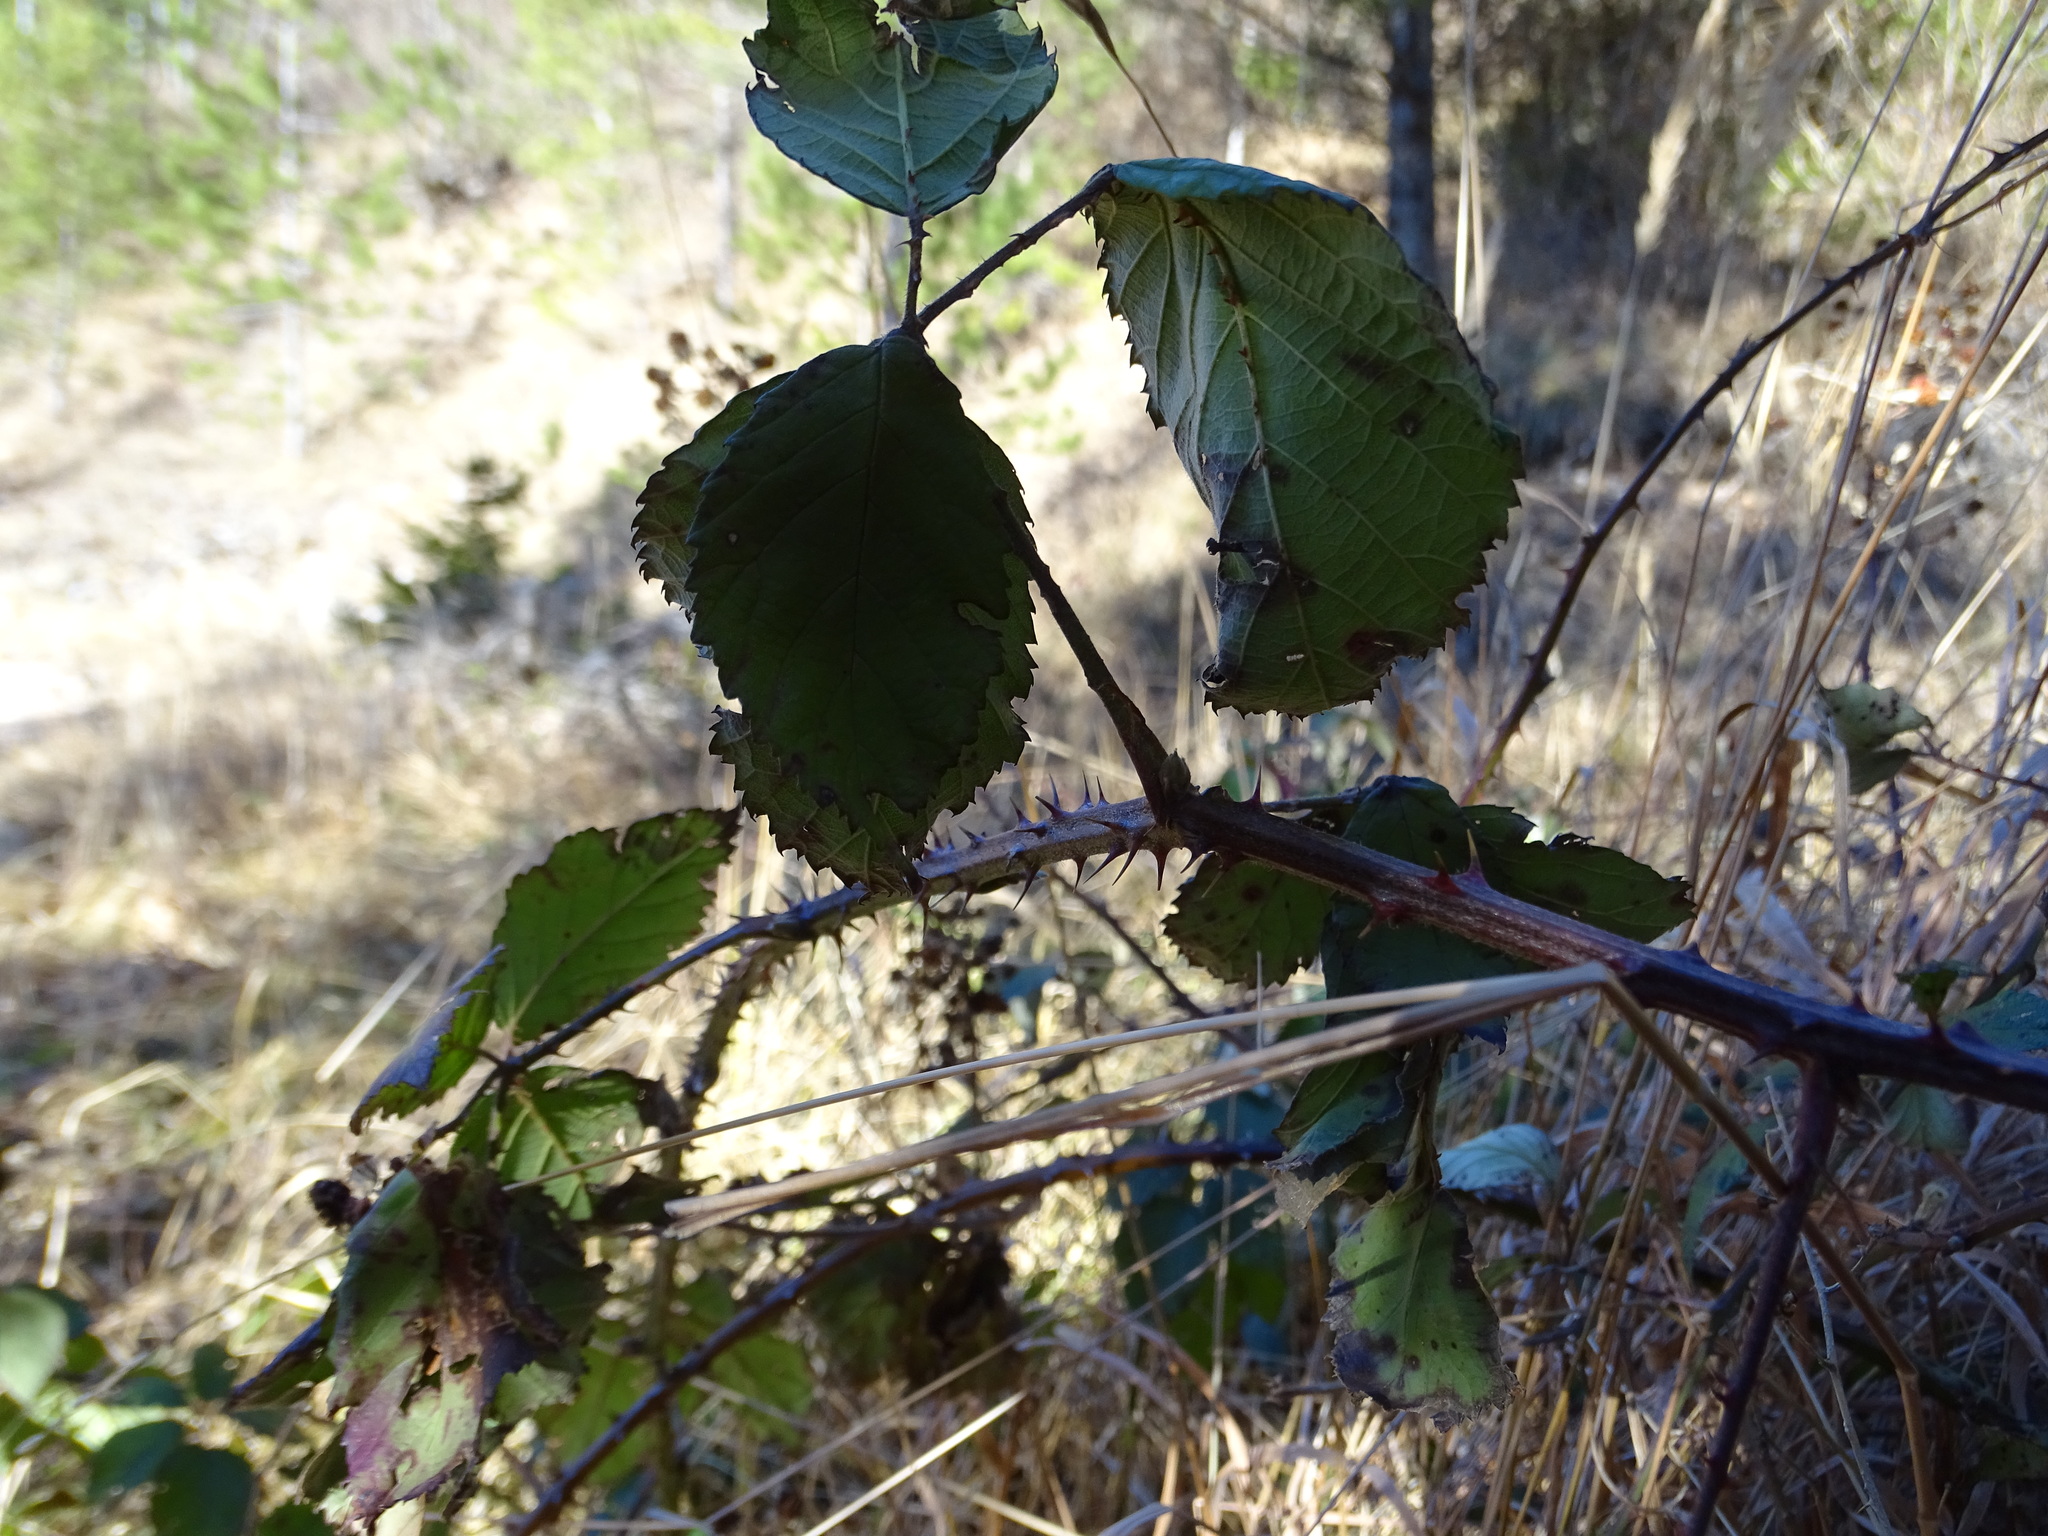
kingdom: Plantae
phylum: Tracheophyta
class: Magnoliopsida
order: Rosales
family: Rosaceae
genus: Rubus
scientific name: Rubus
